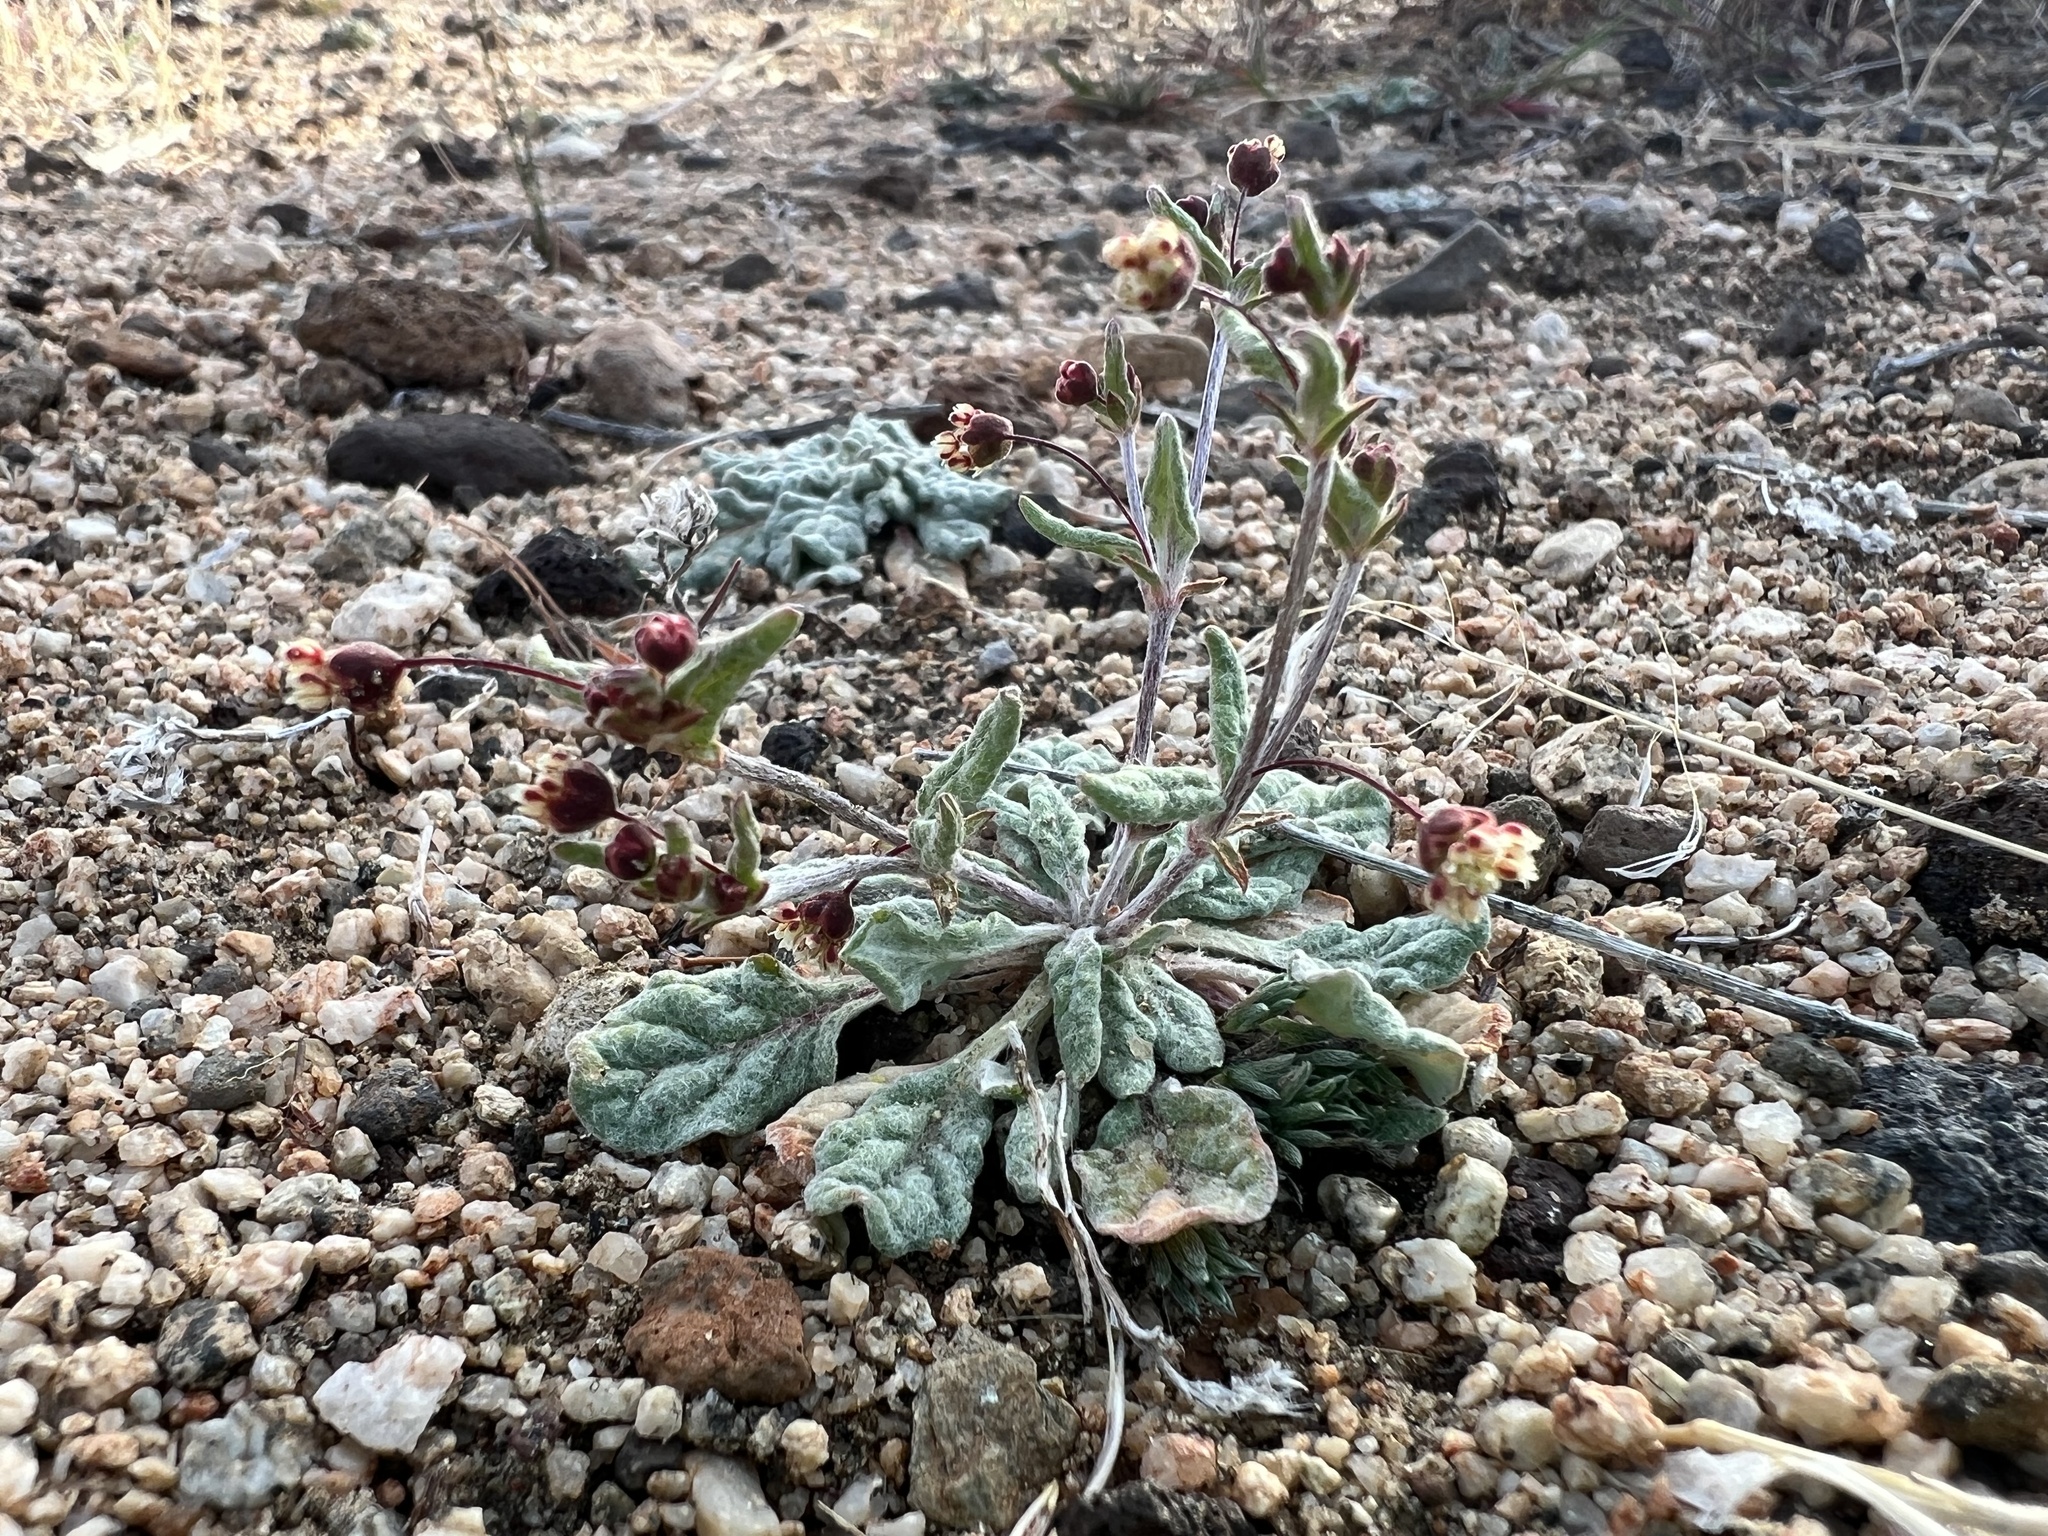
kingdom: Plantae
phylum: Tracheophyta
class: Magnoliopsida
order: Caryophyllales
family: Polygonaceae
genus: Eriogonum
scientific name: Eriogonum maculatum
